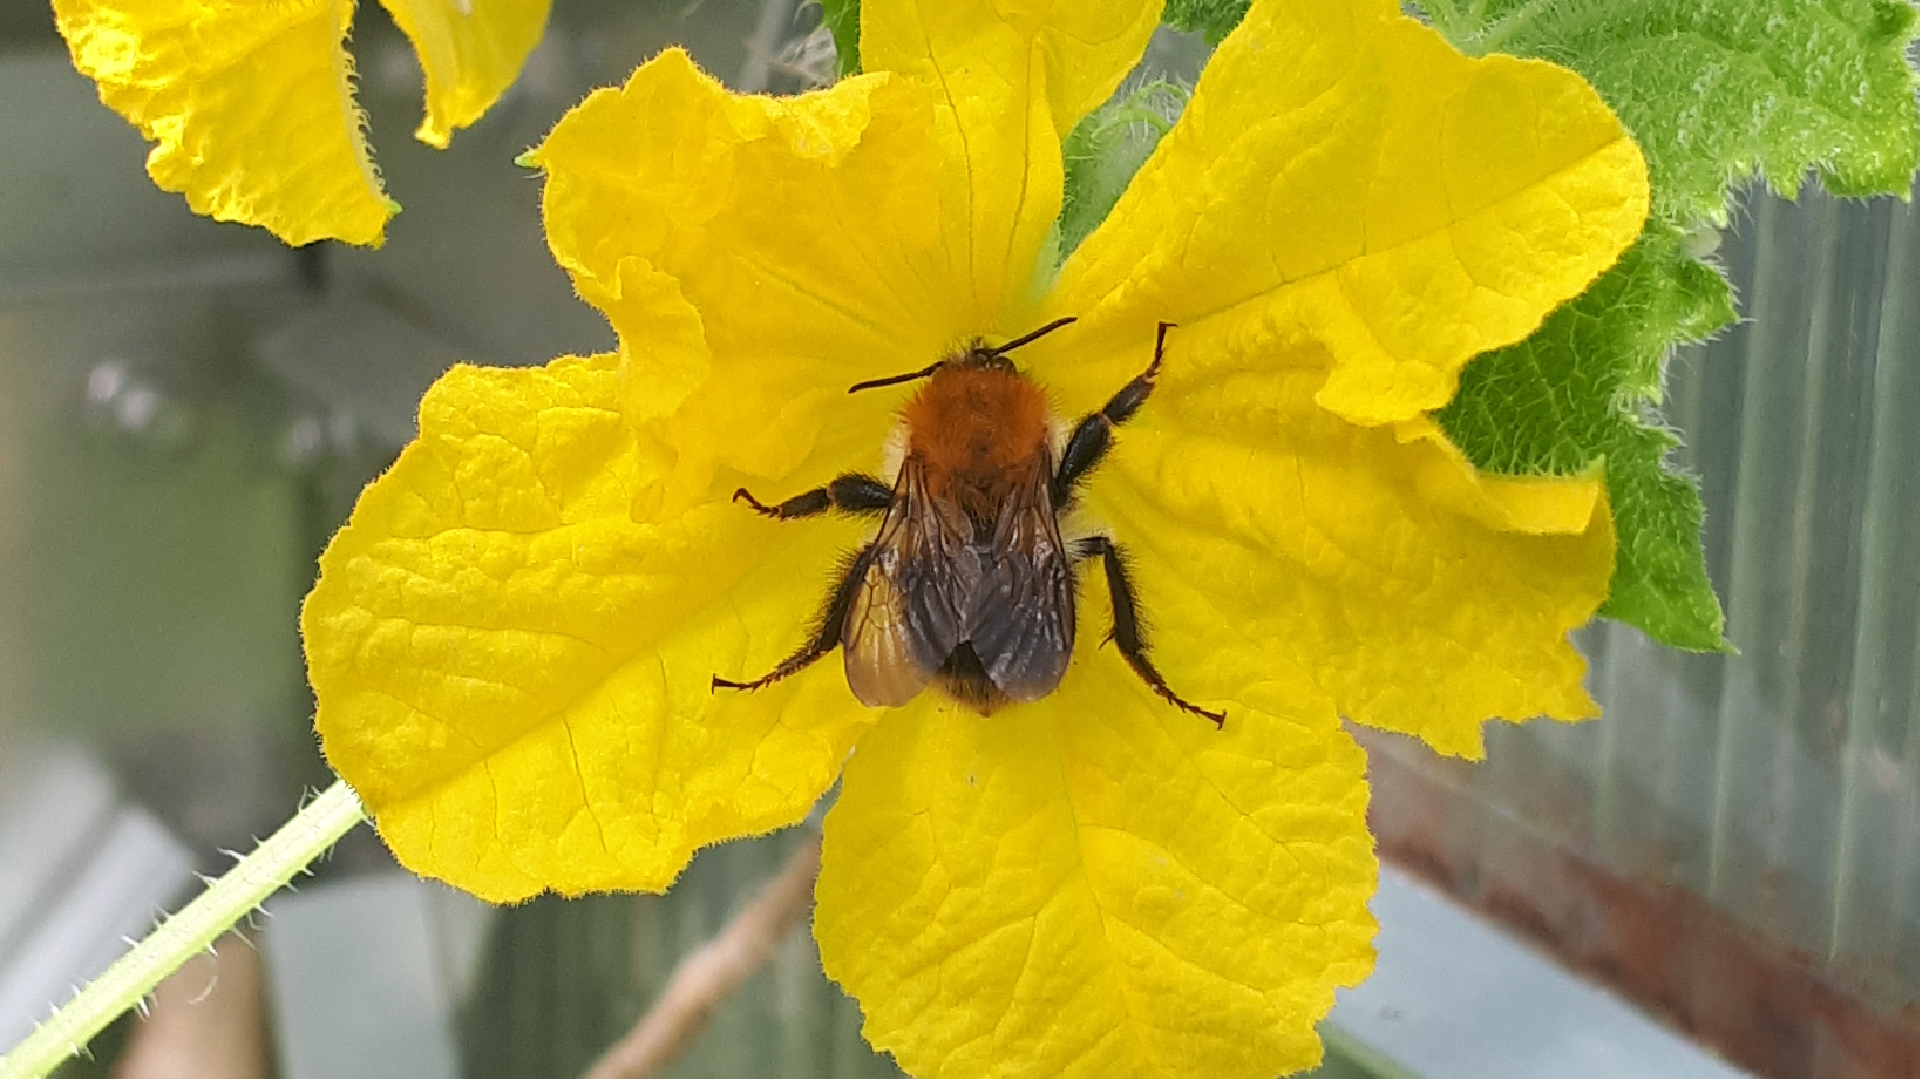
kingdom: Animalia
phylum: Arthropoda
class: Insecta
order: Hymenoptera
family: Apidae
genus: Bombus
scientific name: Bombus pascuorum
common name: Common carder bee
